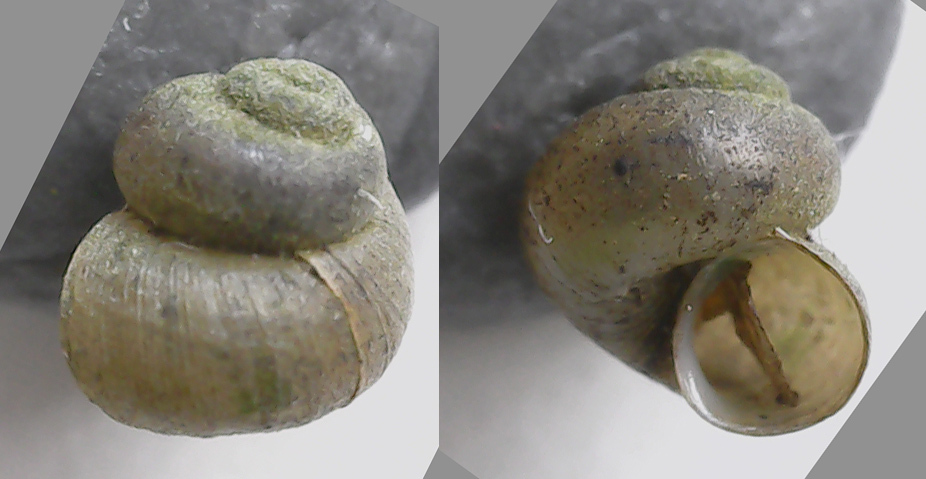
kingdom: Animalia
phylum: Mollusca
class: Gastropoda
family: Valvatidae
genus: Valvata
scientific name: Valvata piscinalis
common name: European valve snail
